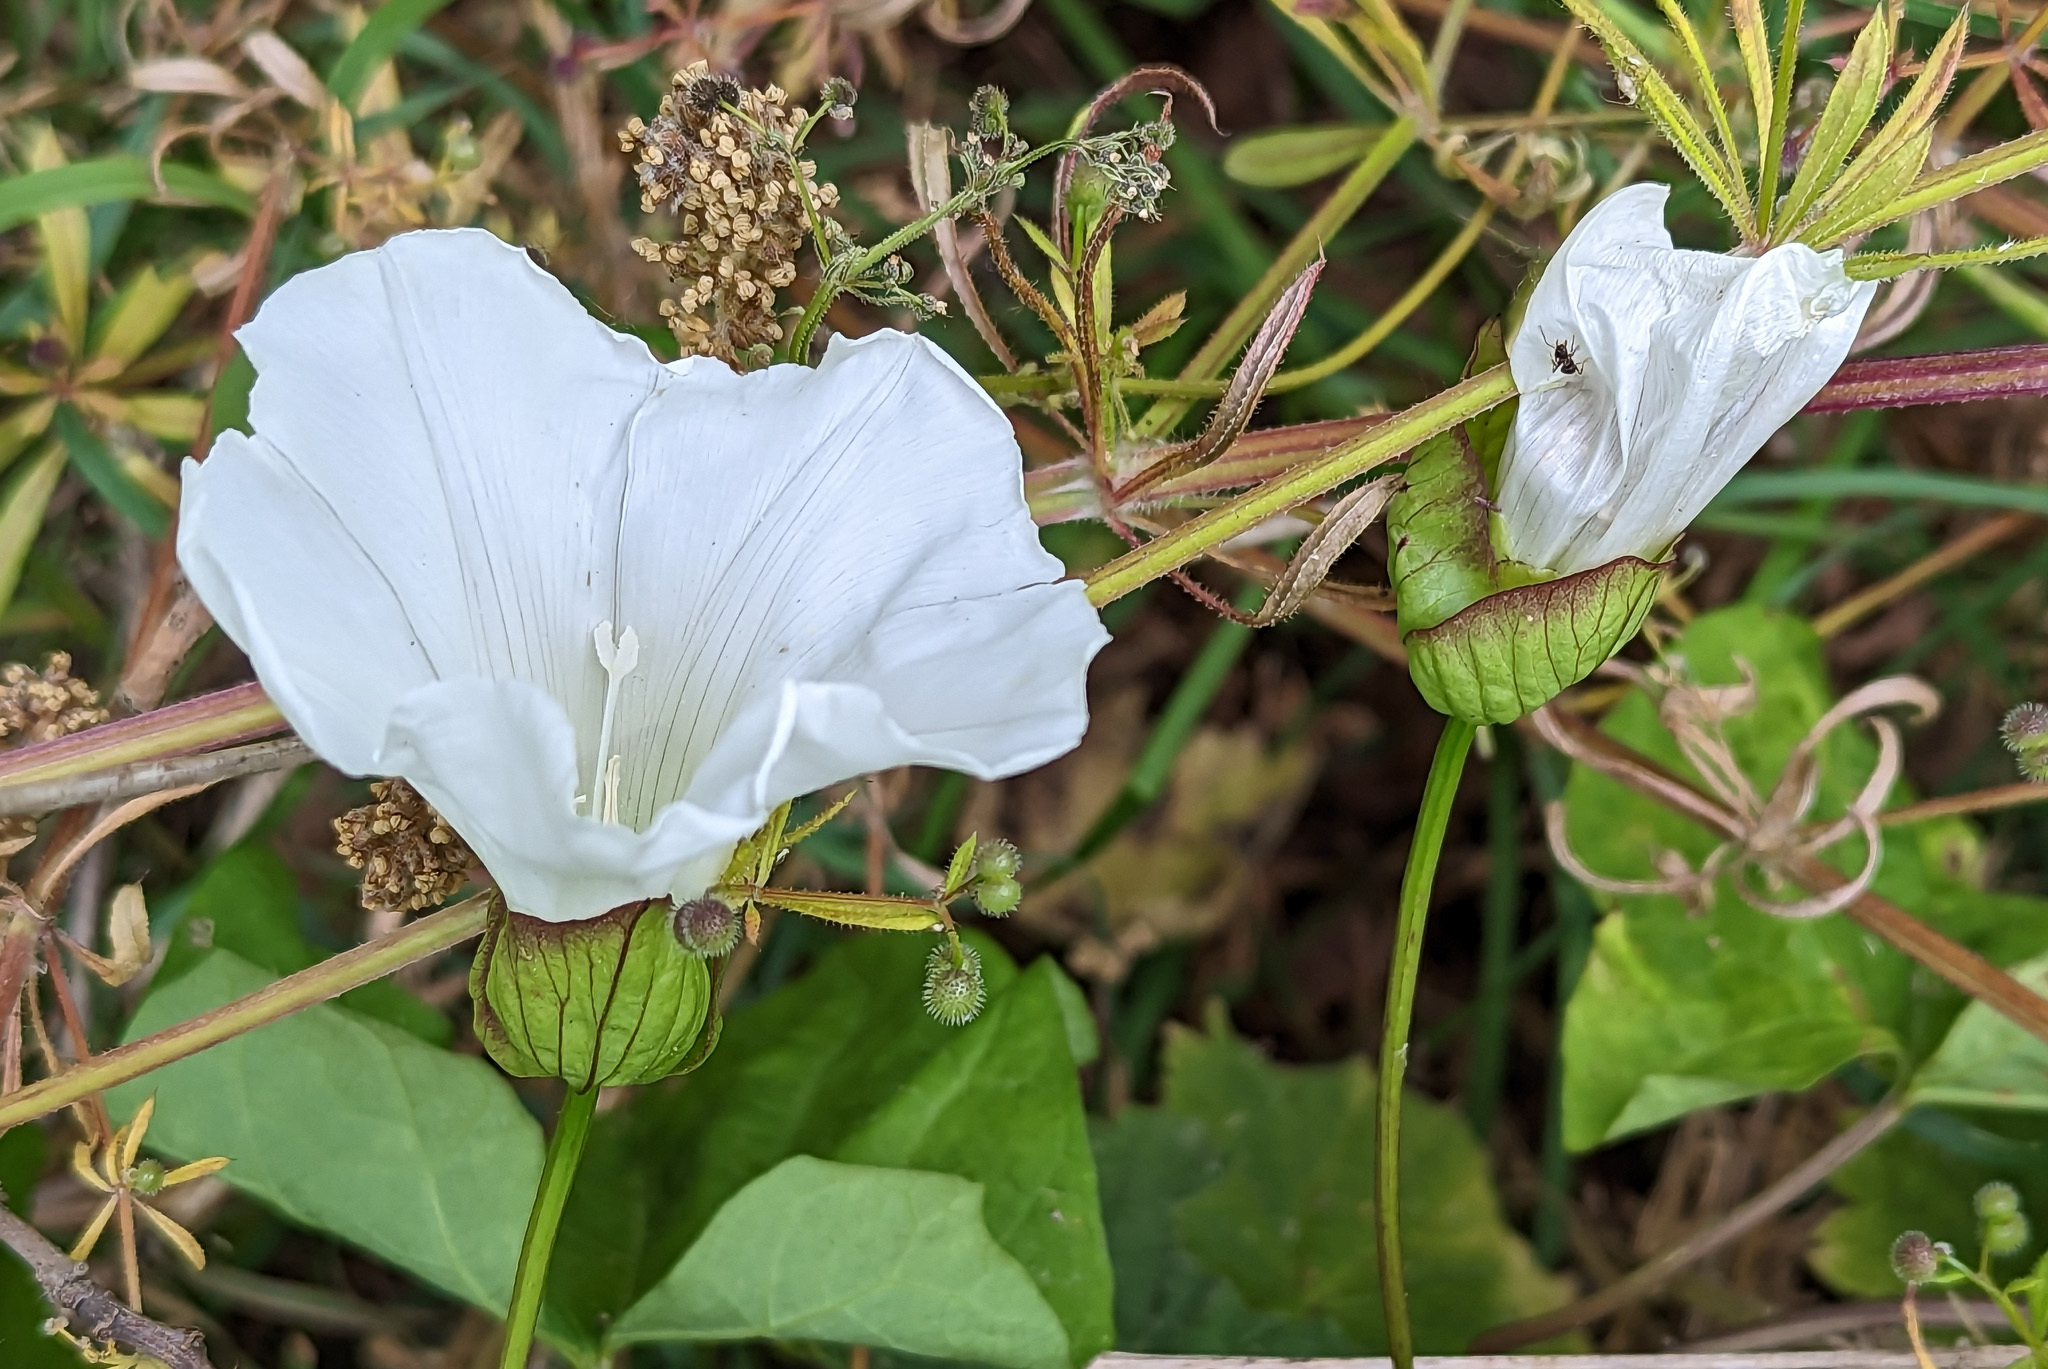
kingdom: Plantae
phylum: Tracheophyta
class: Magnoliopsida
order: Solanales
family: Convolvulaceae
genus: Calystegia
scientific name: Calystegia silvatica
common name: Large bindweed
